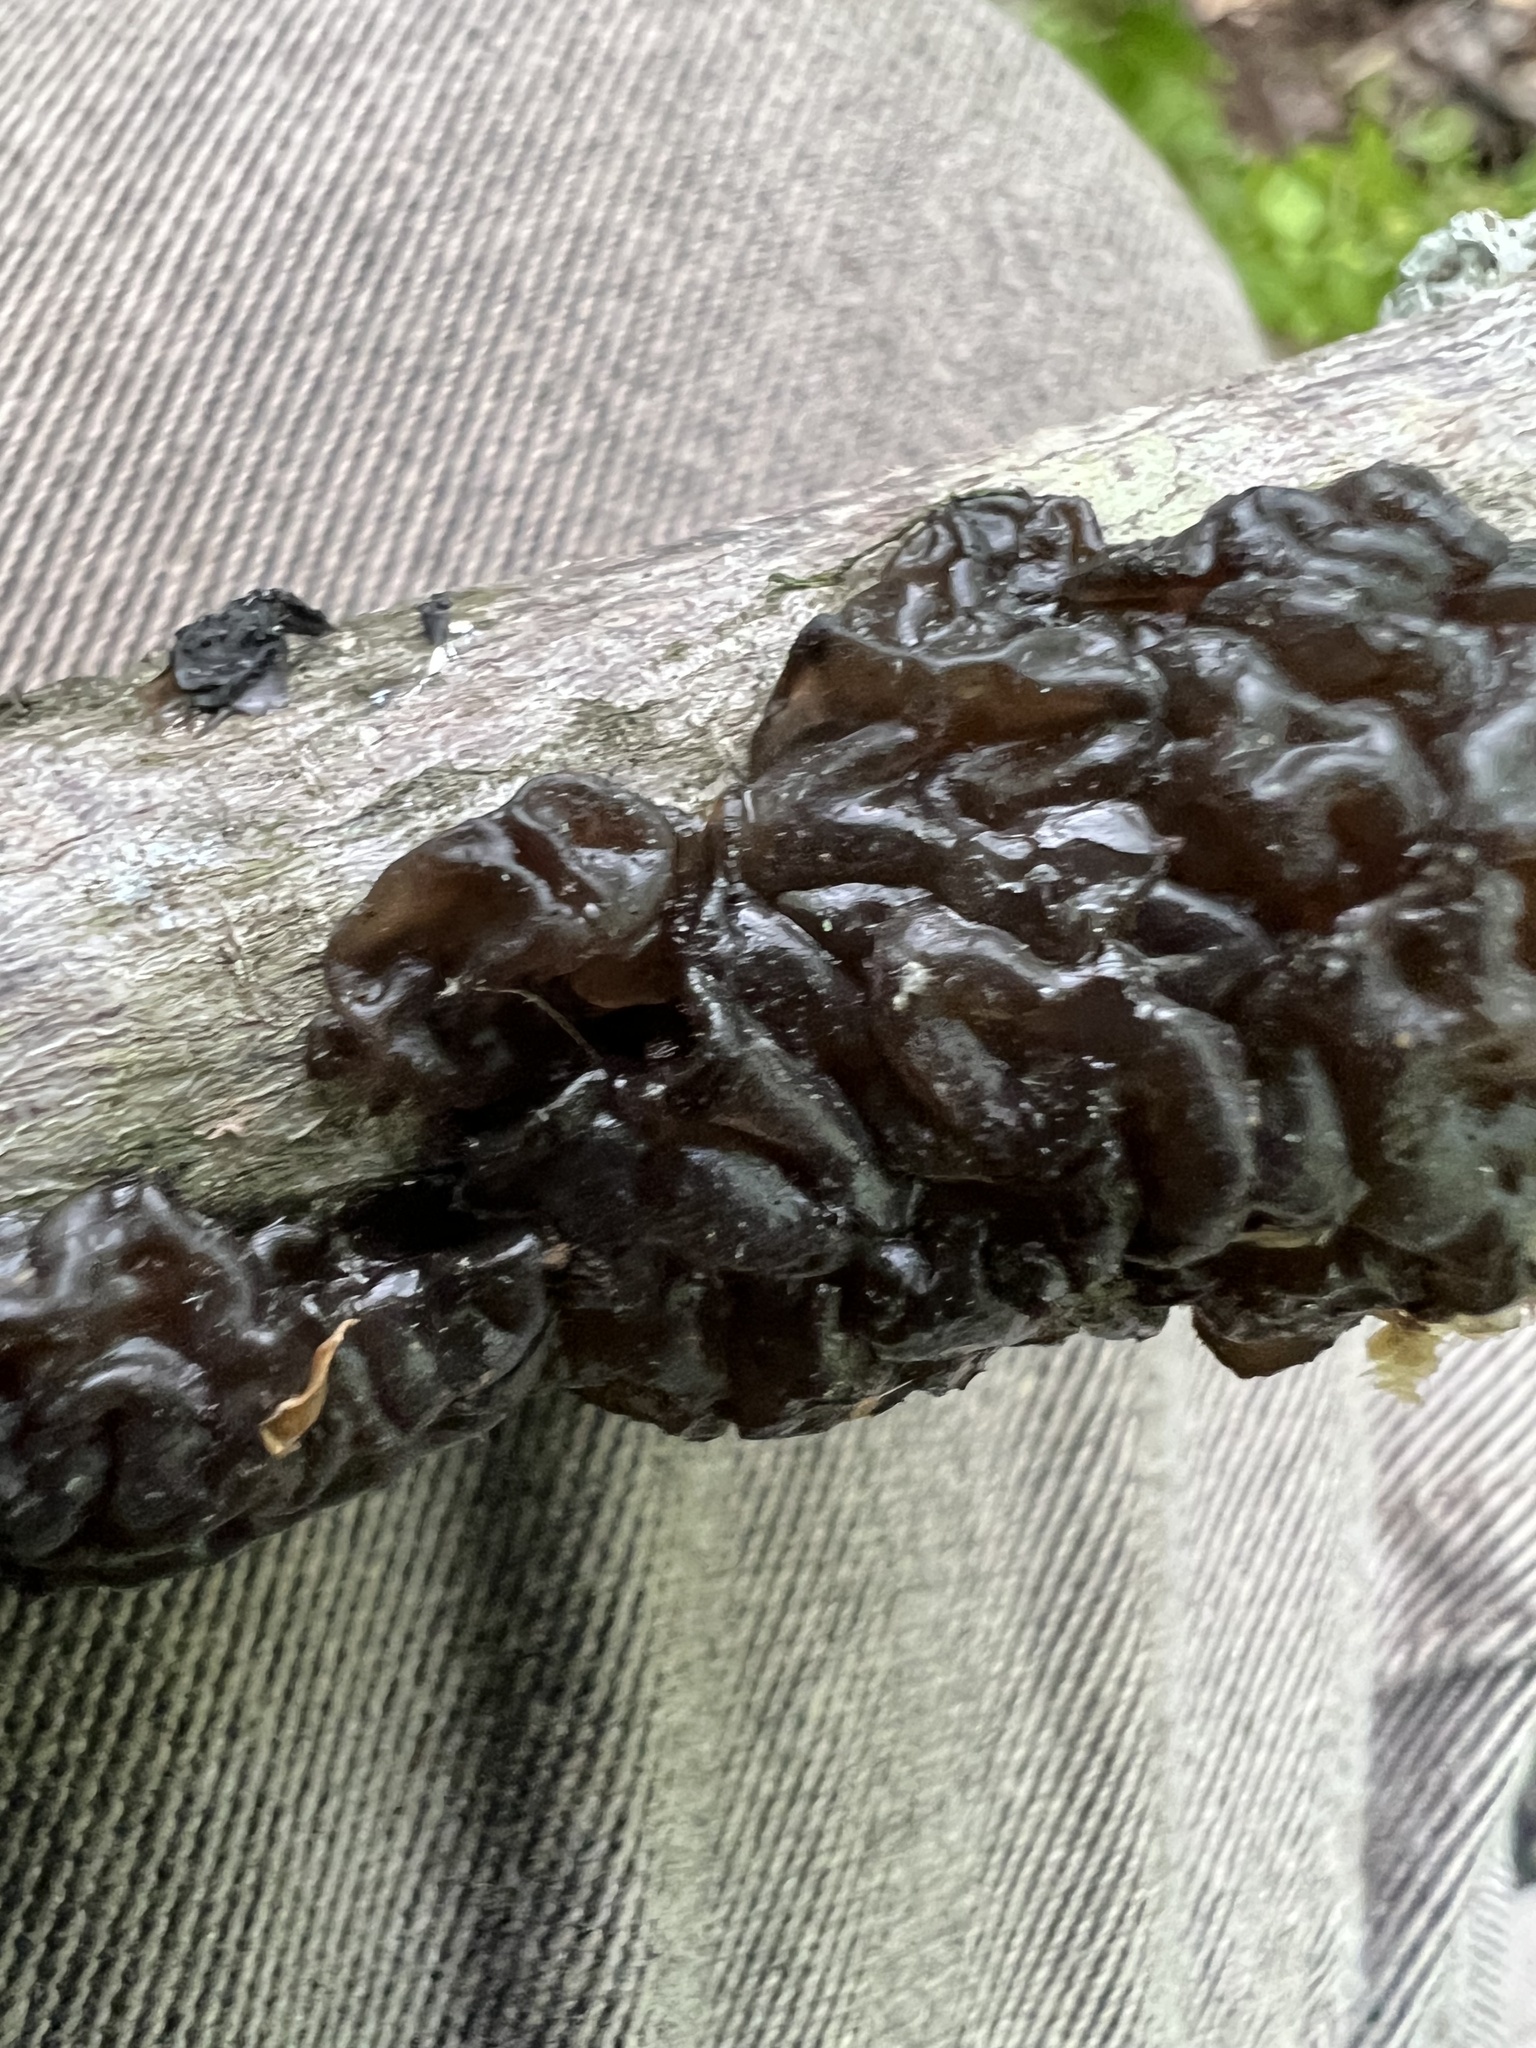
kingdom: Fungi
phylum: Basidiomycota
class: Agaricomycetes
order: Auriculariales
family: Auriculariaceae
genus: Exidia
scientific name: Exidia
